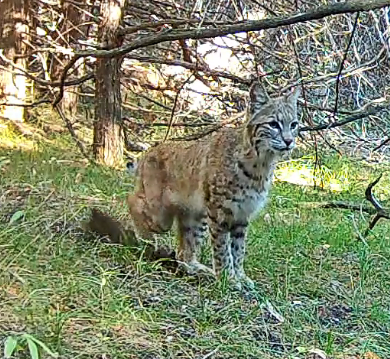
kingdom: Animalia
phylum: Chordata
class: Mammalia
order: Carnivora
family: Felidae
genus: Lynx
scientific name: Lynx rufus
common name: Bobcat
